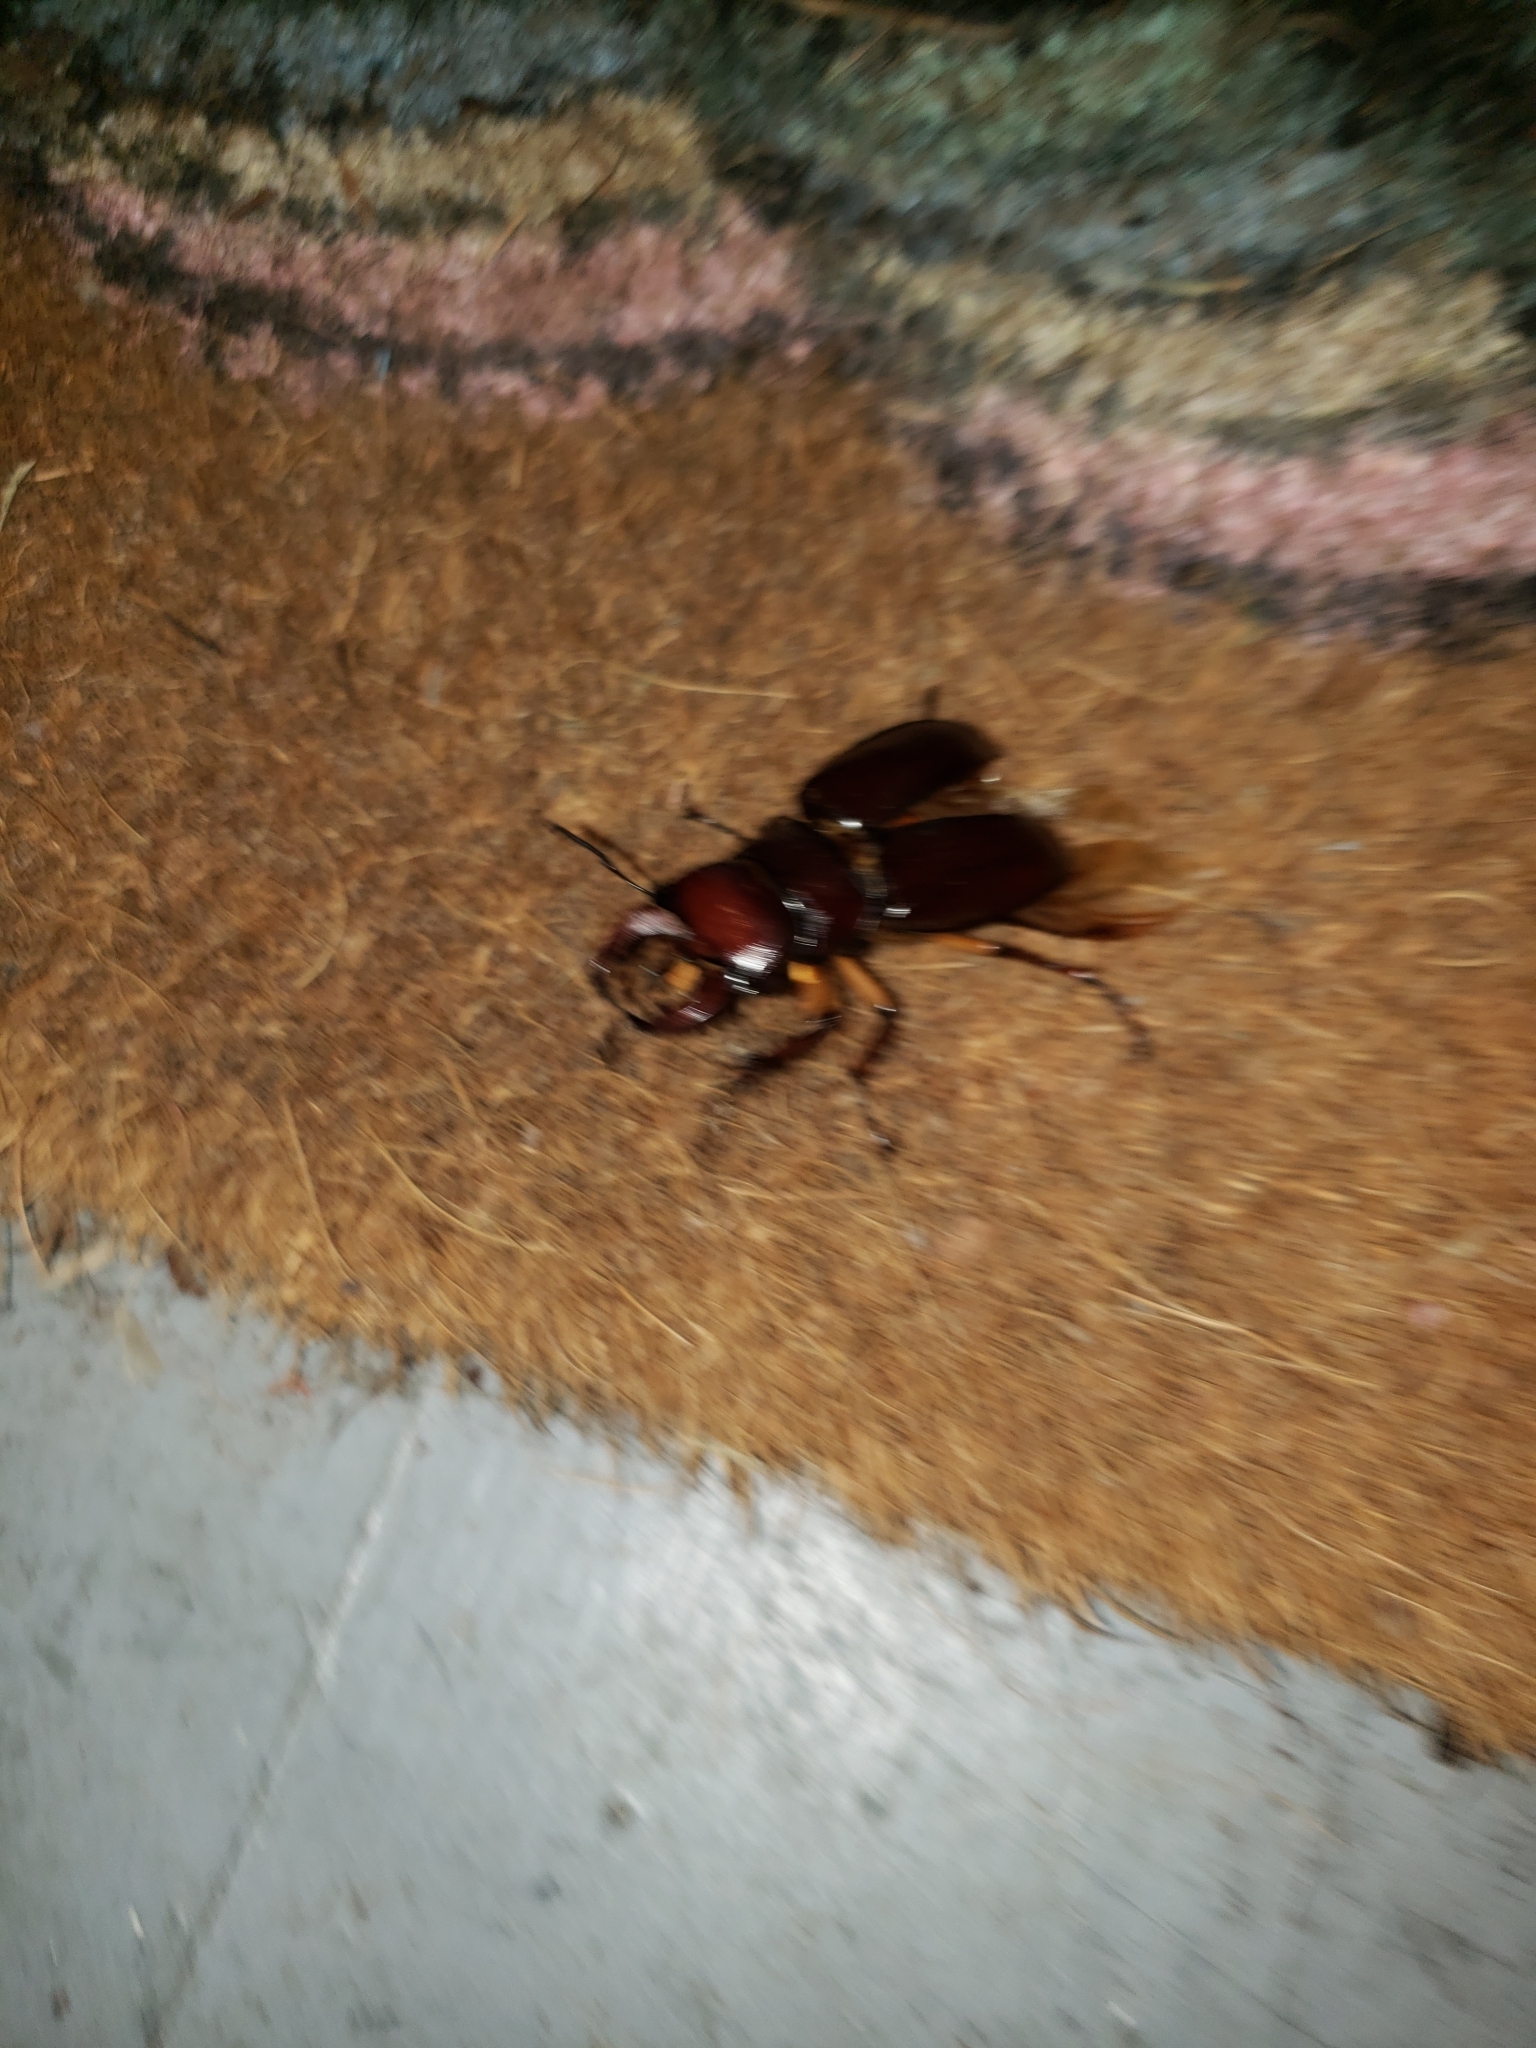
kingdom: Animalia
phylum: Arthropoda
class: Insecta
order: Coleoptera
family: Lucanidae
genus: Lucanus
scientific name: Lucanus capreolus
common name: Stag beetle
